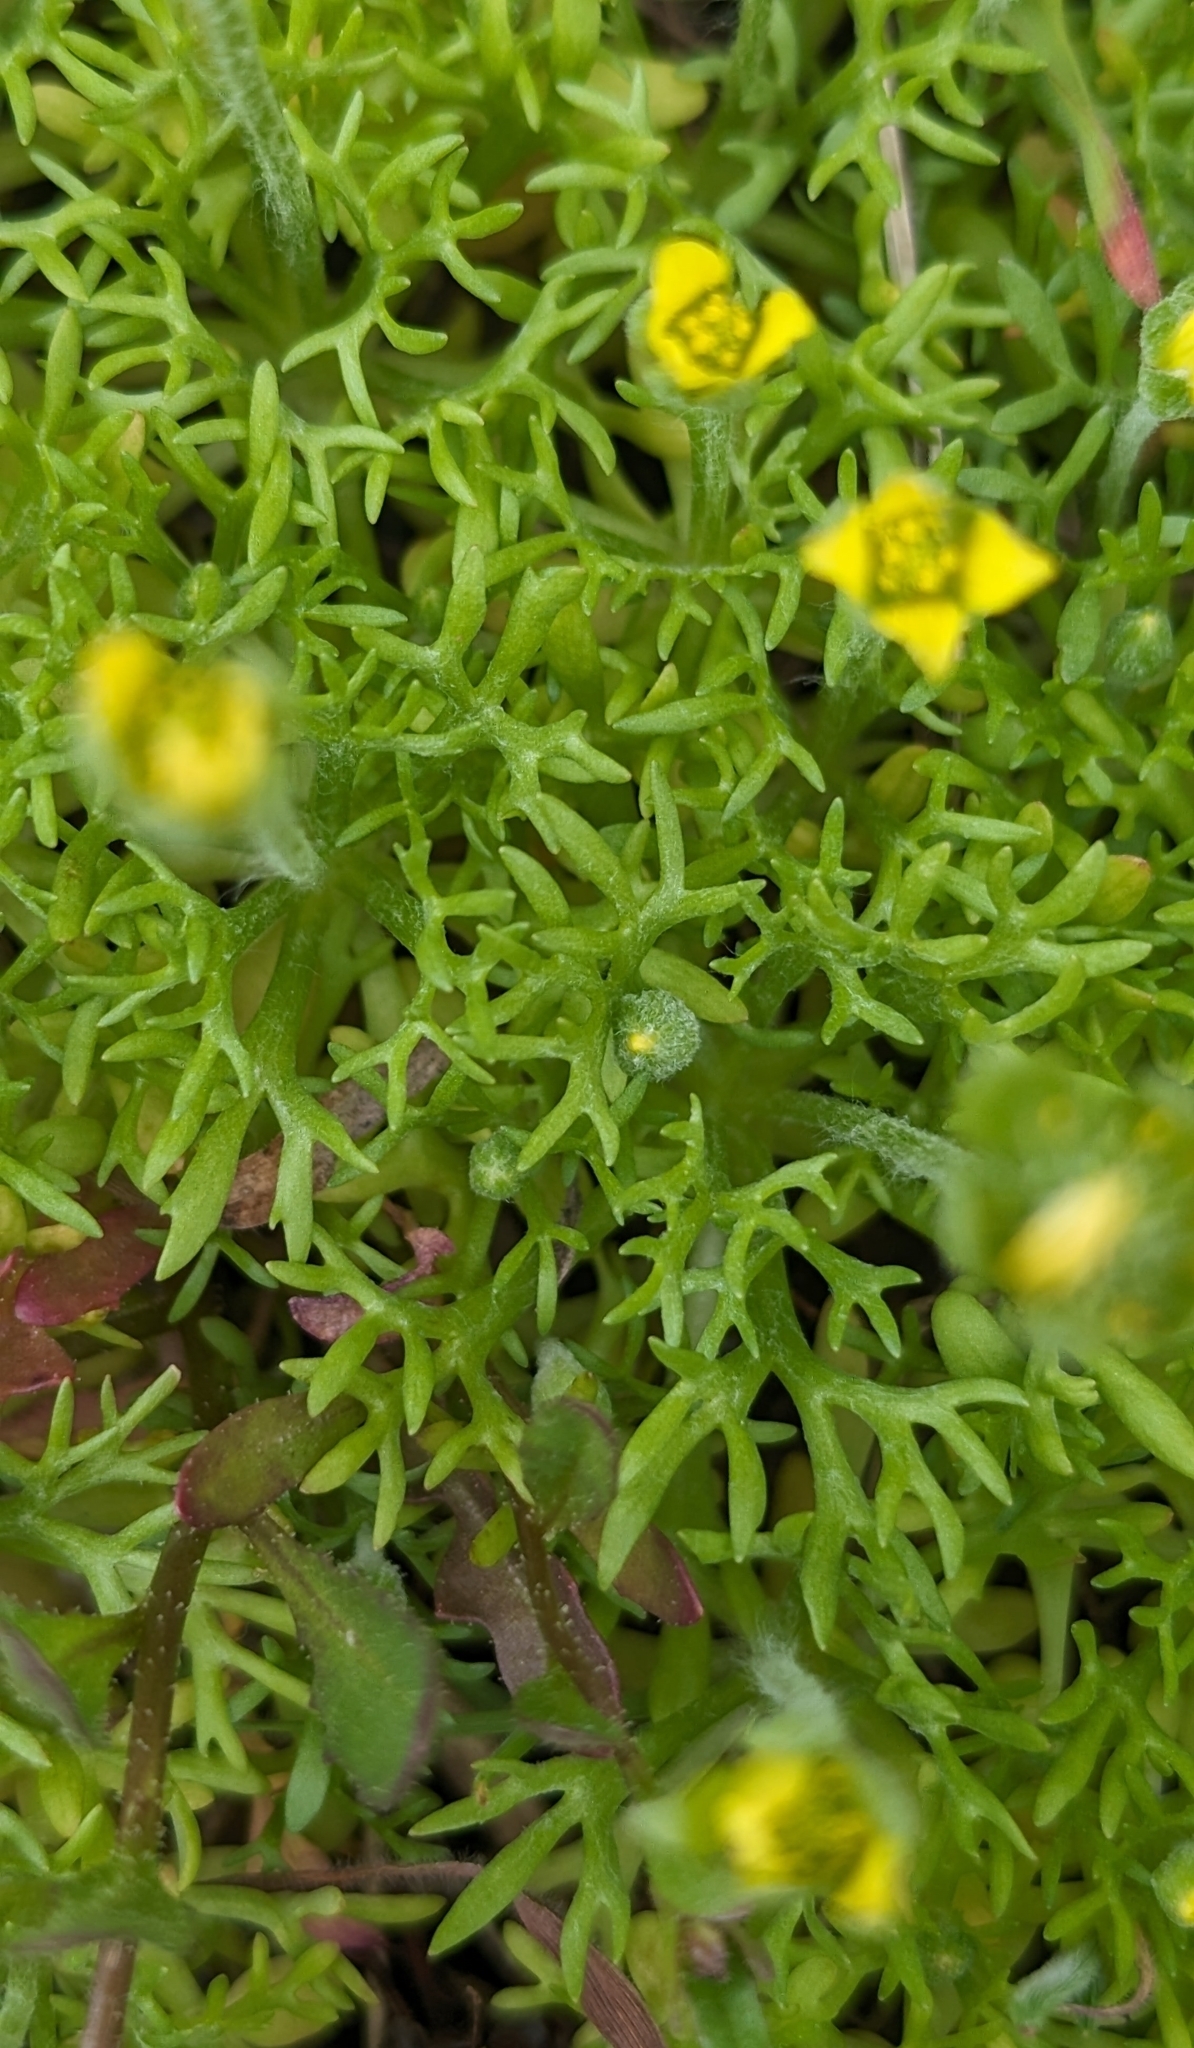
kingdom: Plantae
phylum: Tracheophyta
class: Magnoliopsida
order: Ranunculales
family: Ranunculaceae
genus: Ceratocephala
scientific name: Ceratocephala orthoceras
